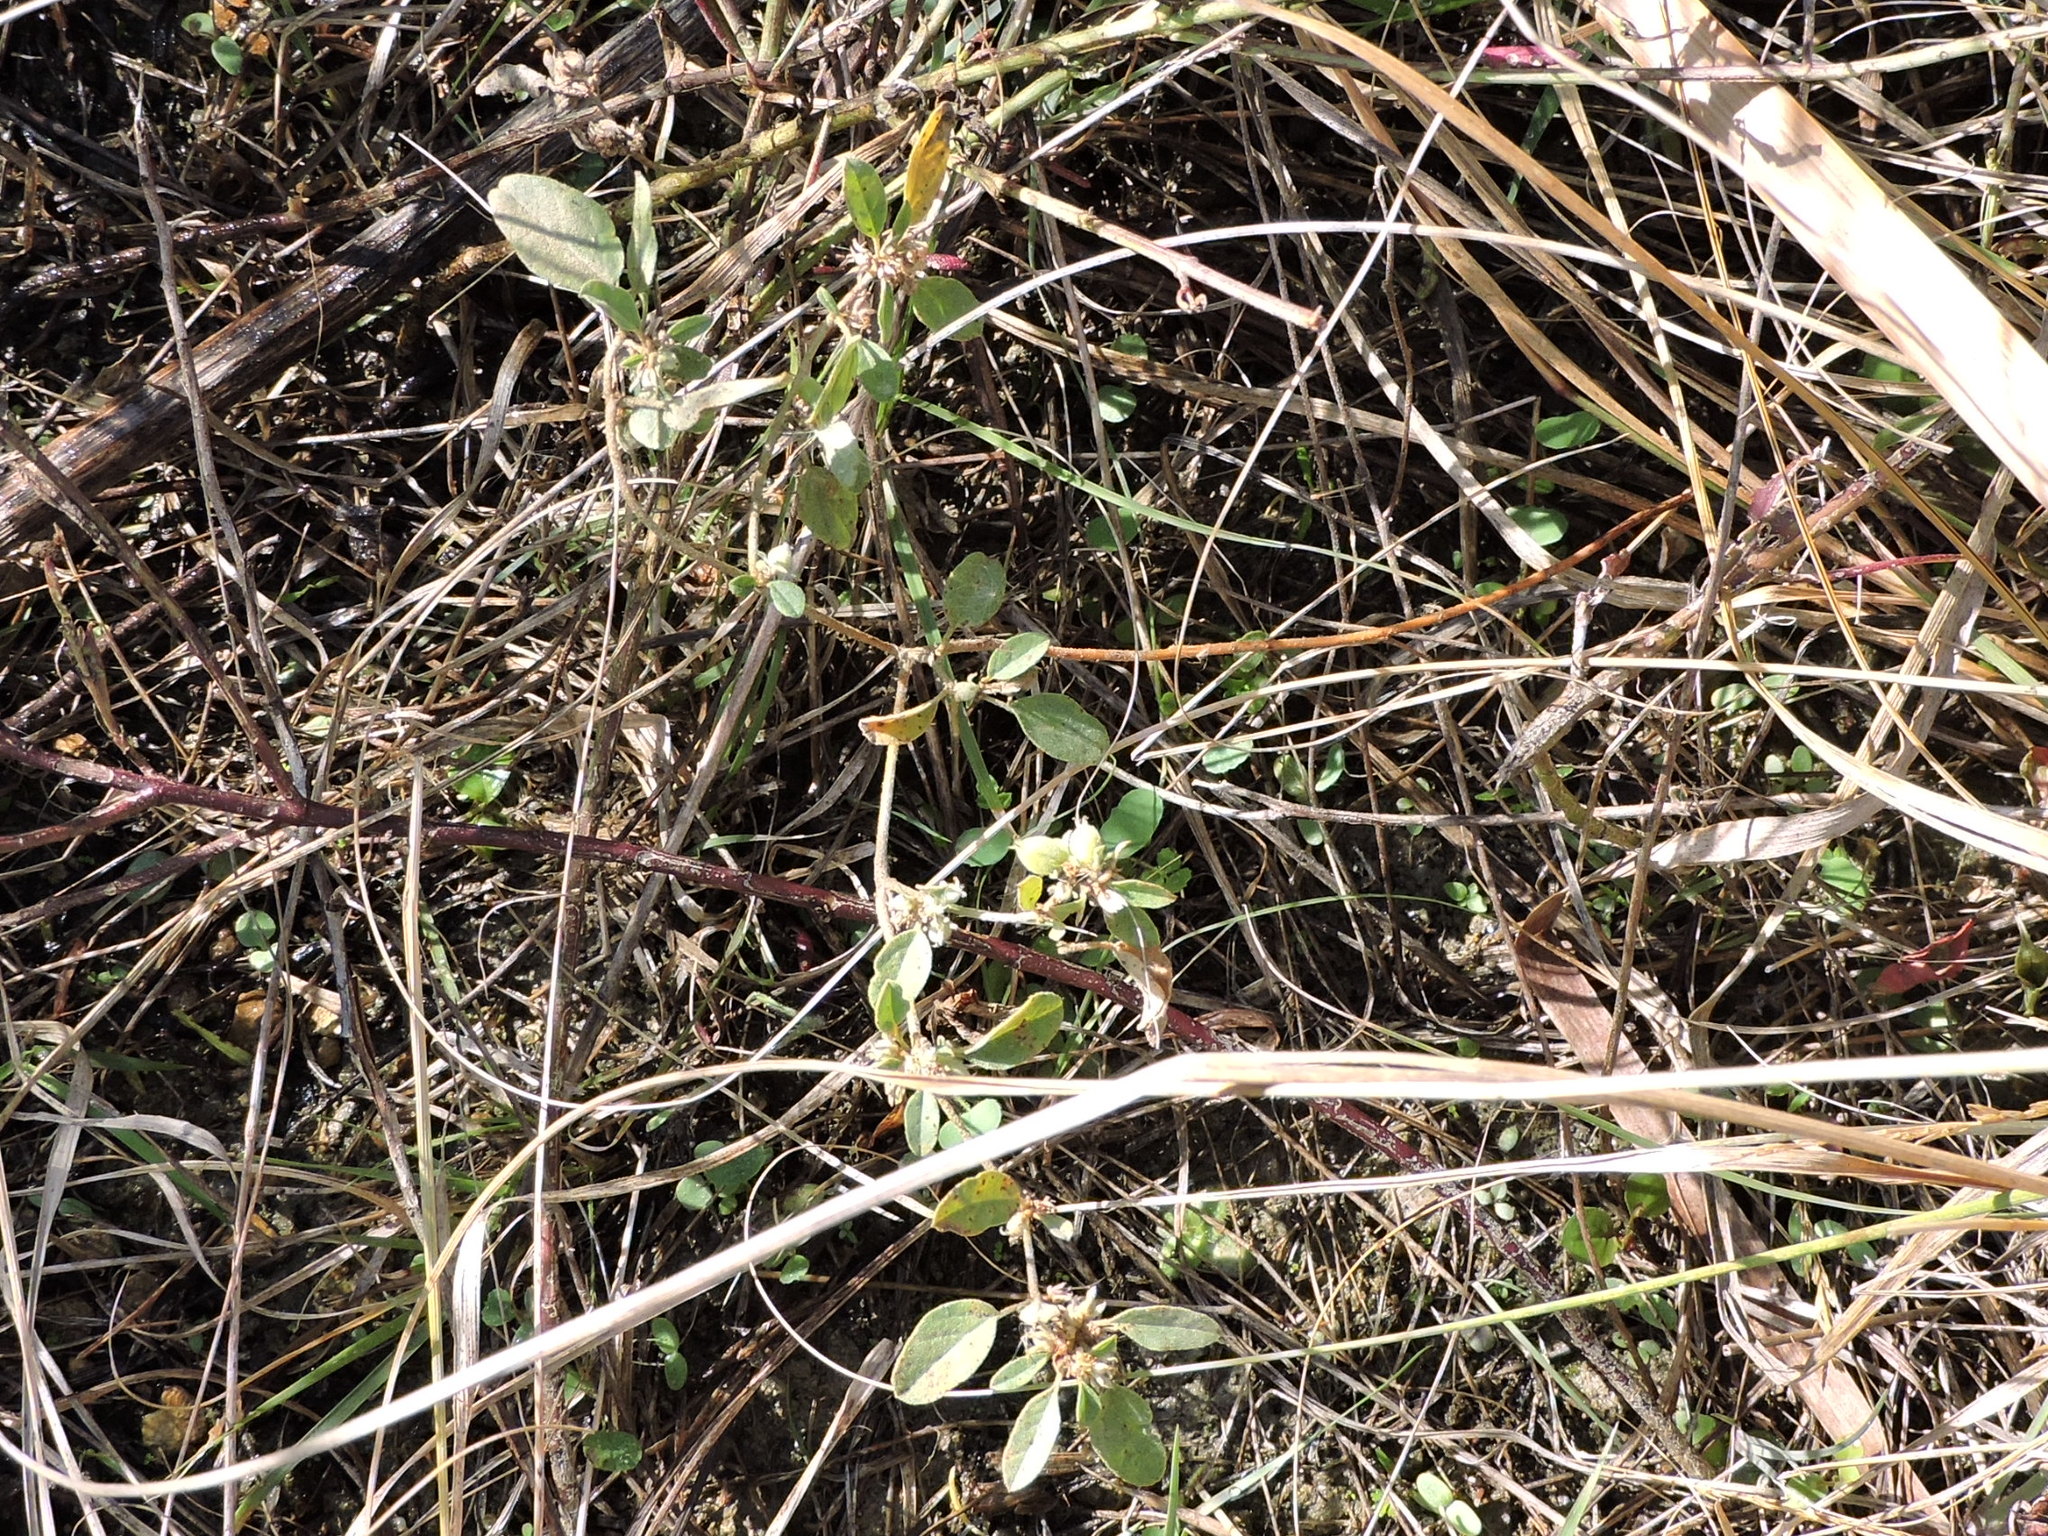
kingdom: Plantae
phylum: Tracheophyta
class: Magnoliopsida
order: Malpighiales
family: Euphorbiaceae
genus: Croton
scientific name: Croton monanthogynus
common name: One-seed croton
